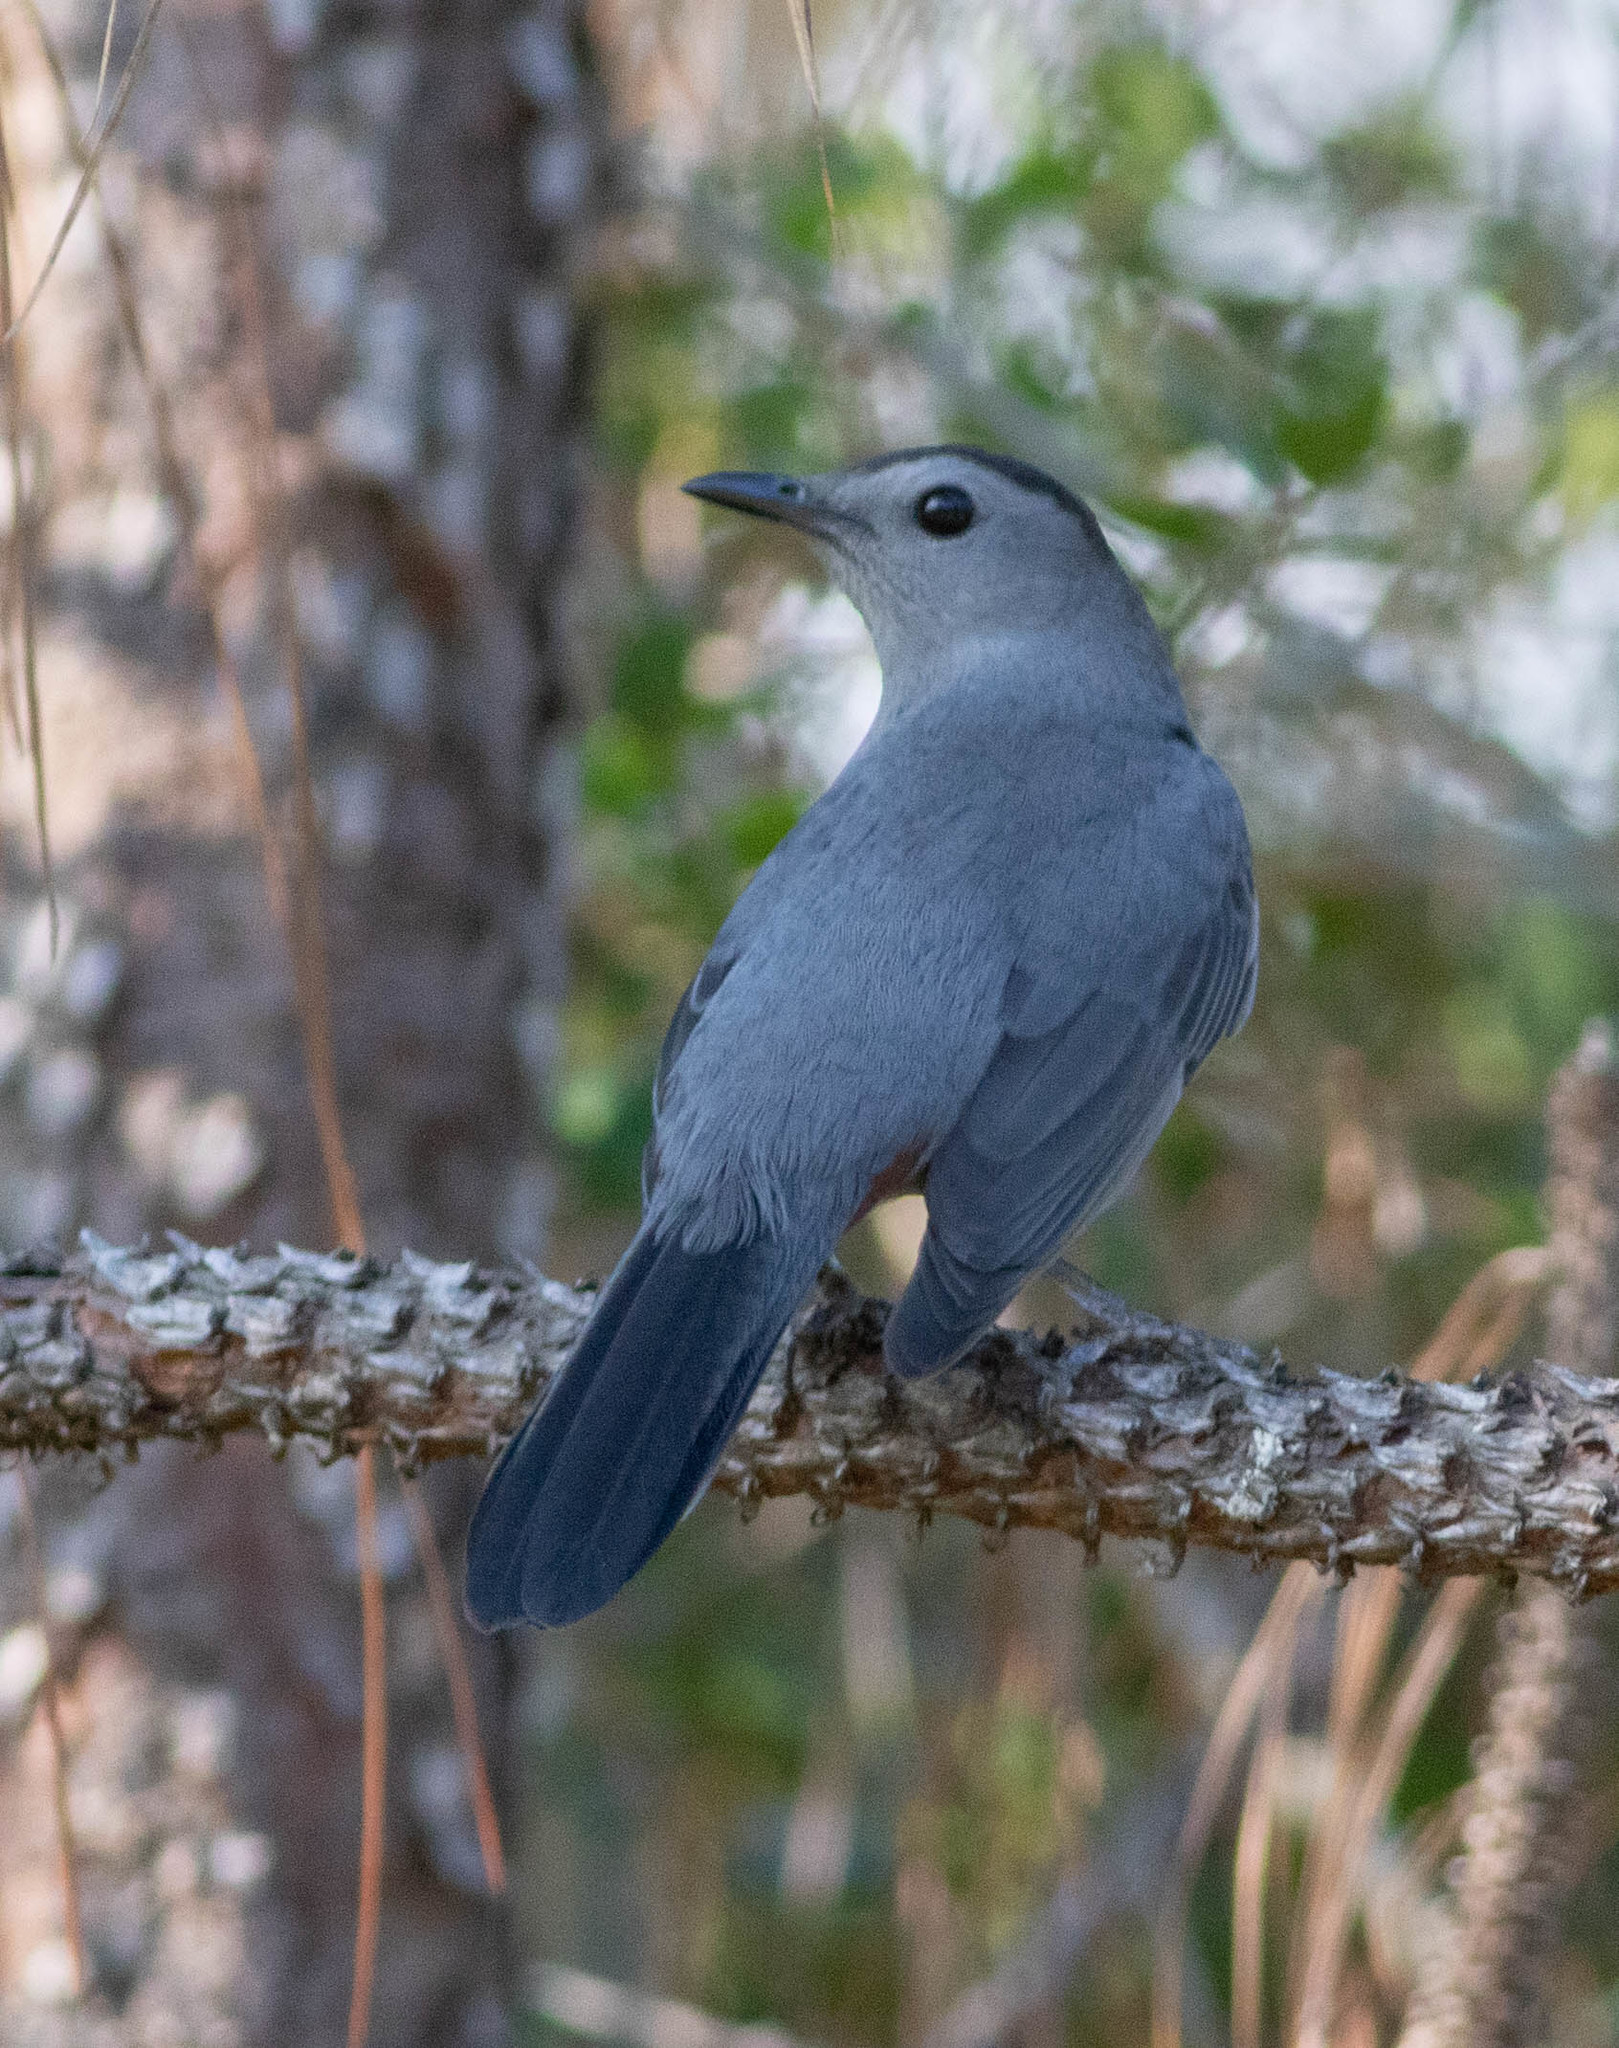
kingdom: Animalia
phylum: Chordata
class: Aves
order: Passeriformes
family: Mimidae
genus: Dumetella
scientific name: Dumetella carolinensis
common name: Gray catbird
